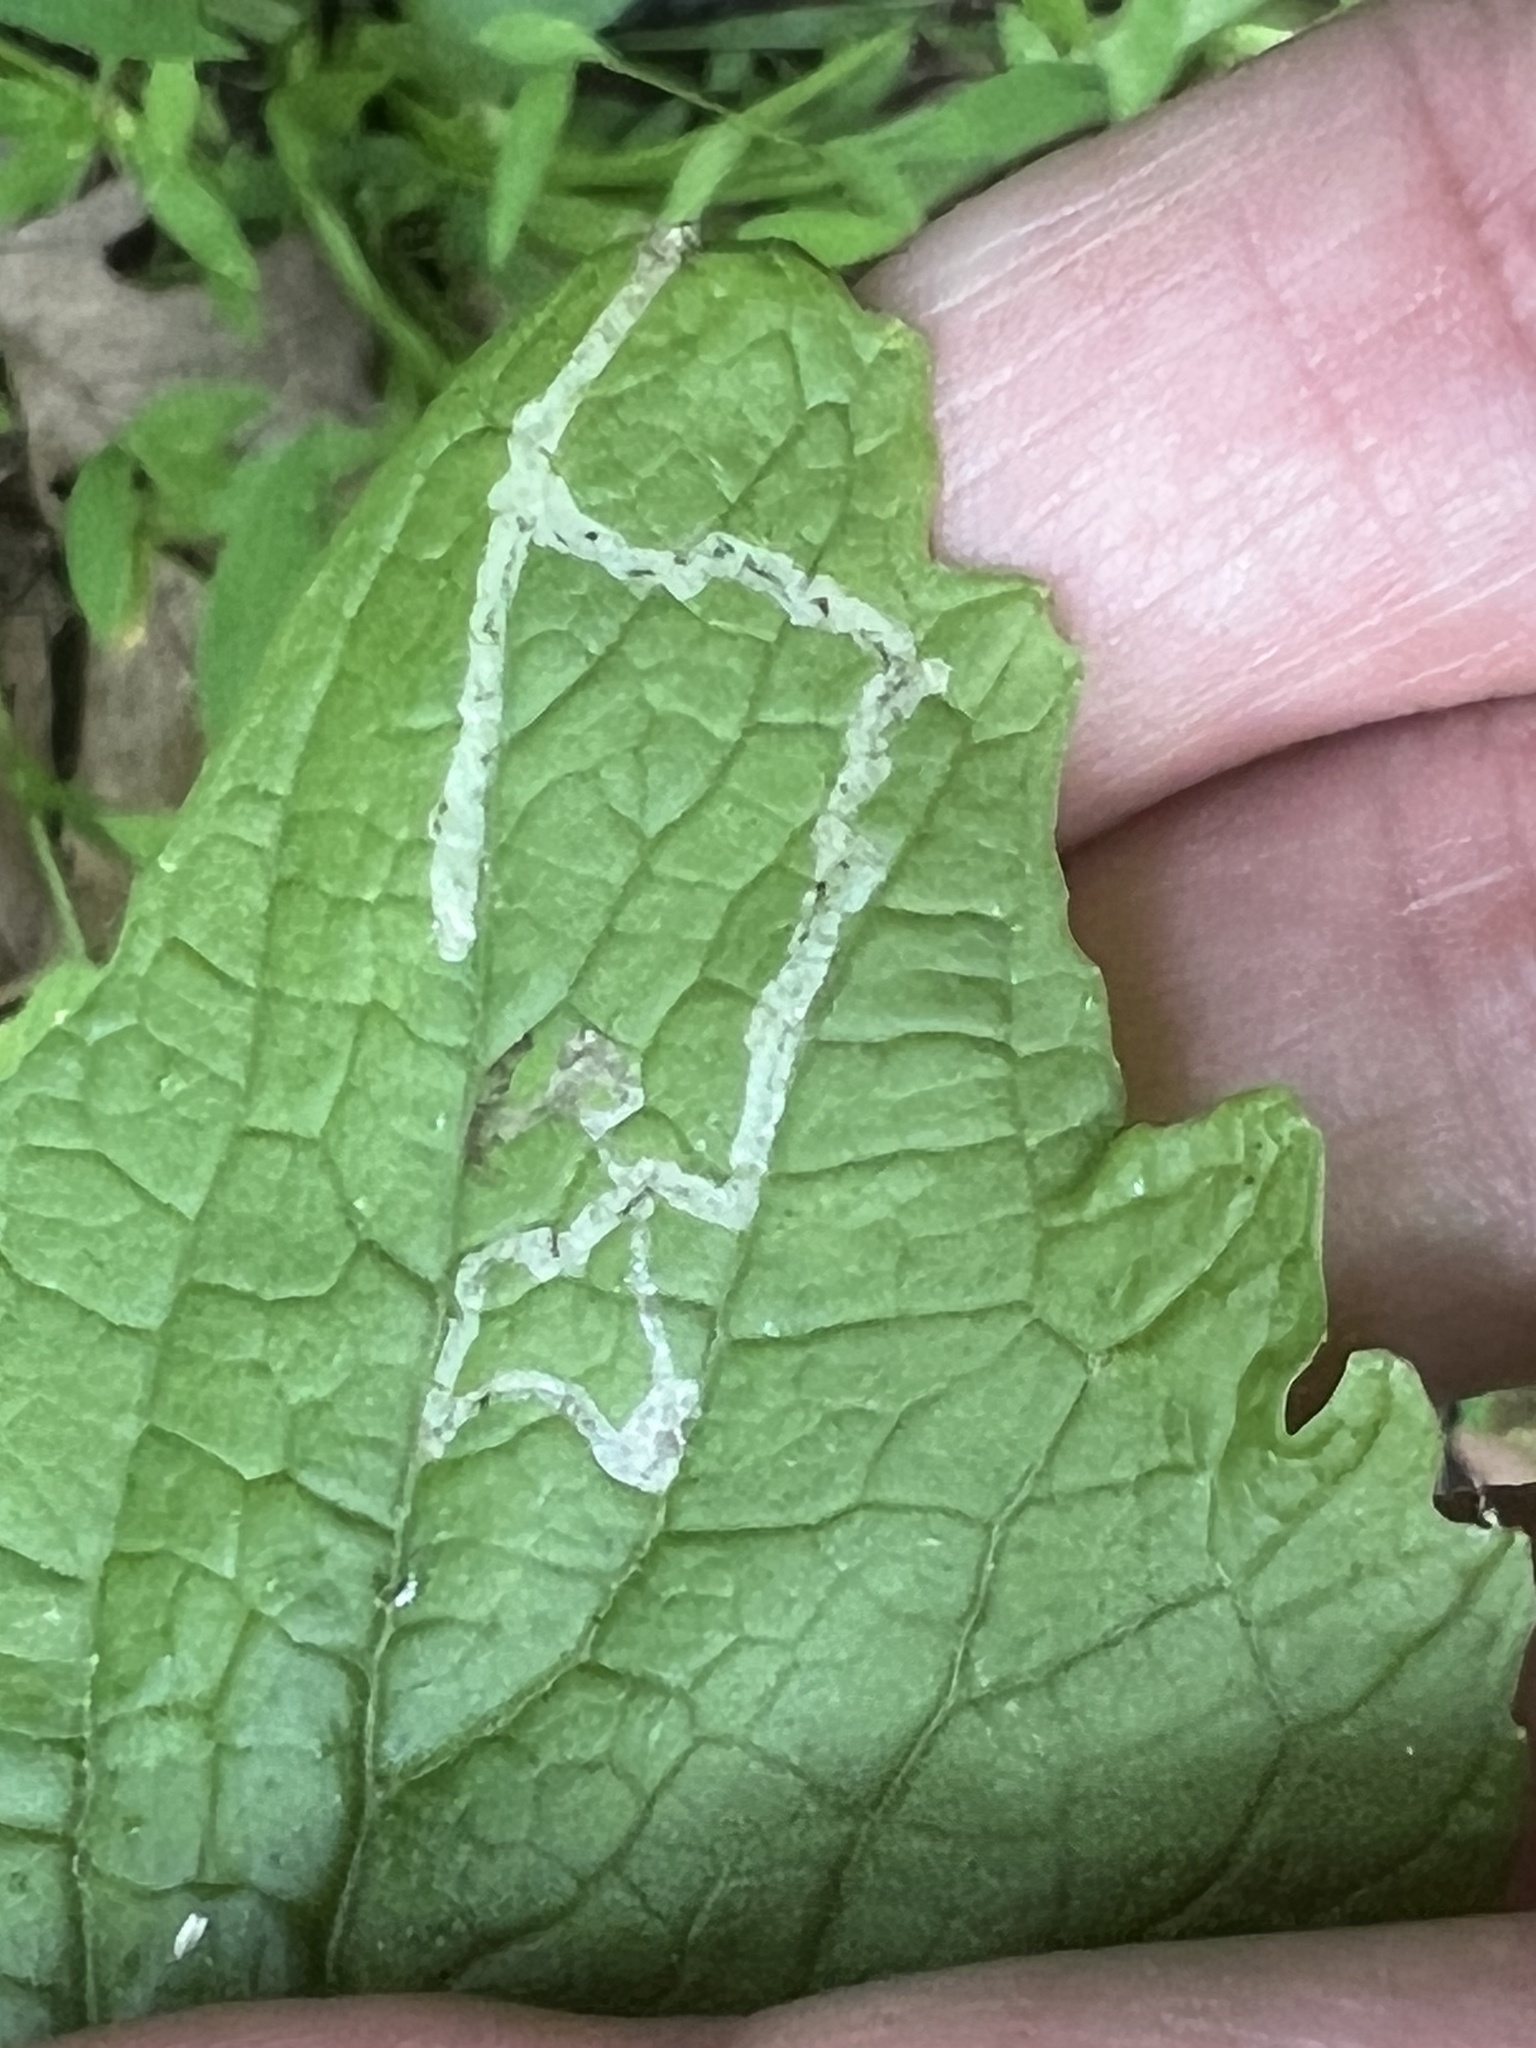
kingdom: Animalia
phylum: Arthropoda
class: Insecta
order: Diptera
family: Agromyzidae
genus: Liriomyza
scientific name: Liriomyza brassicae
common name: Serpentine leaf miner
